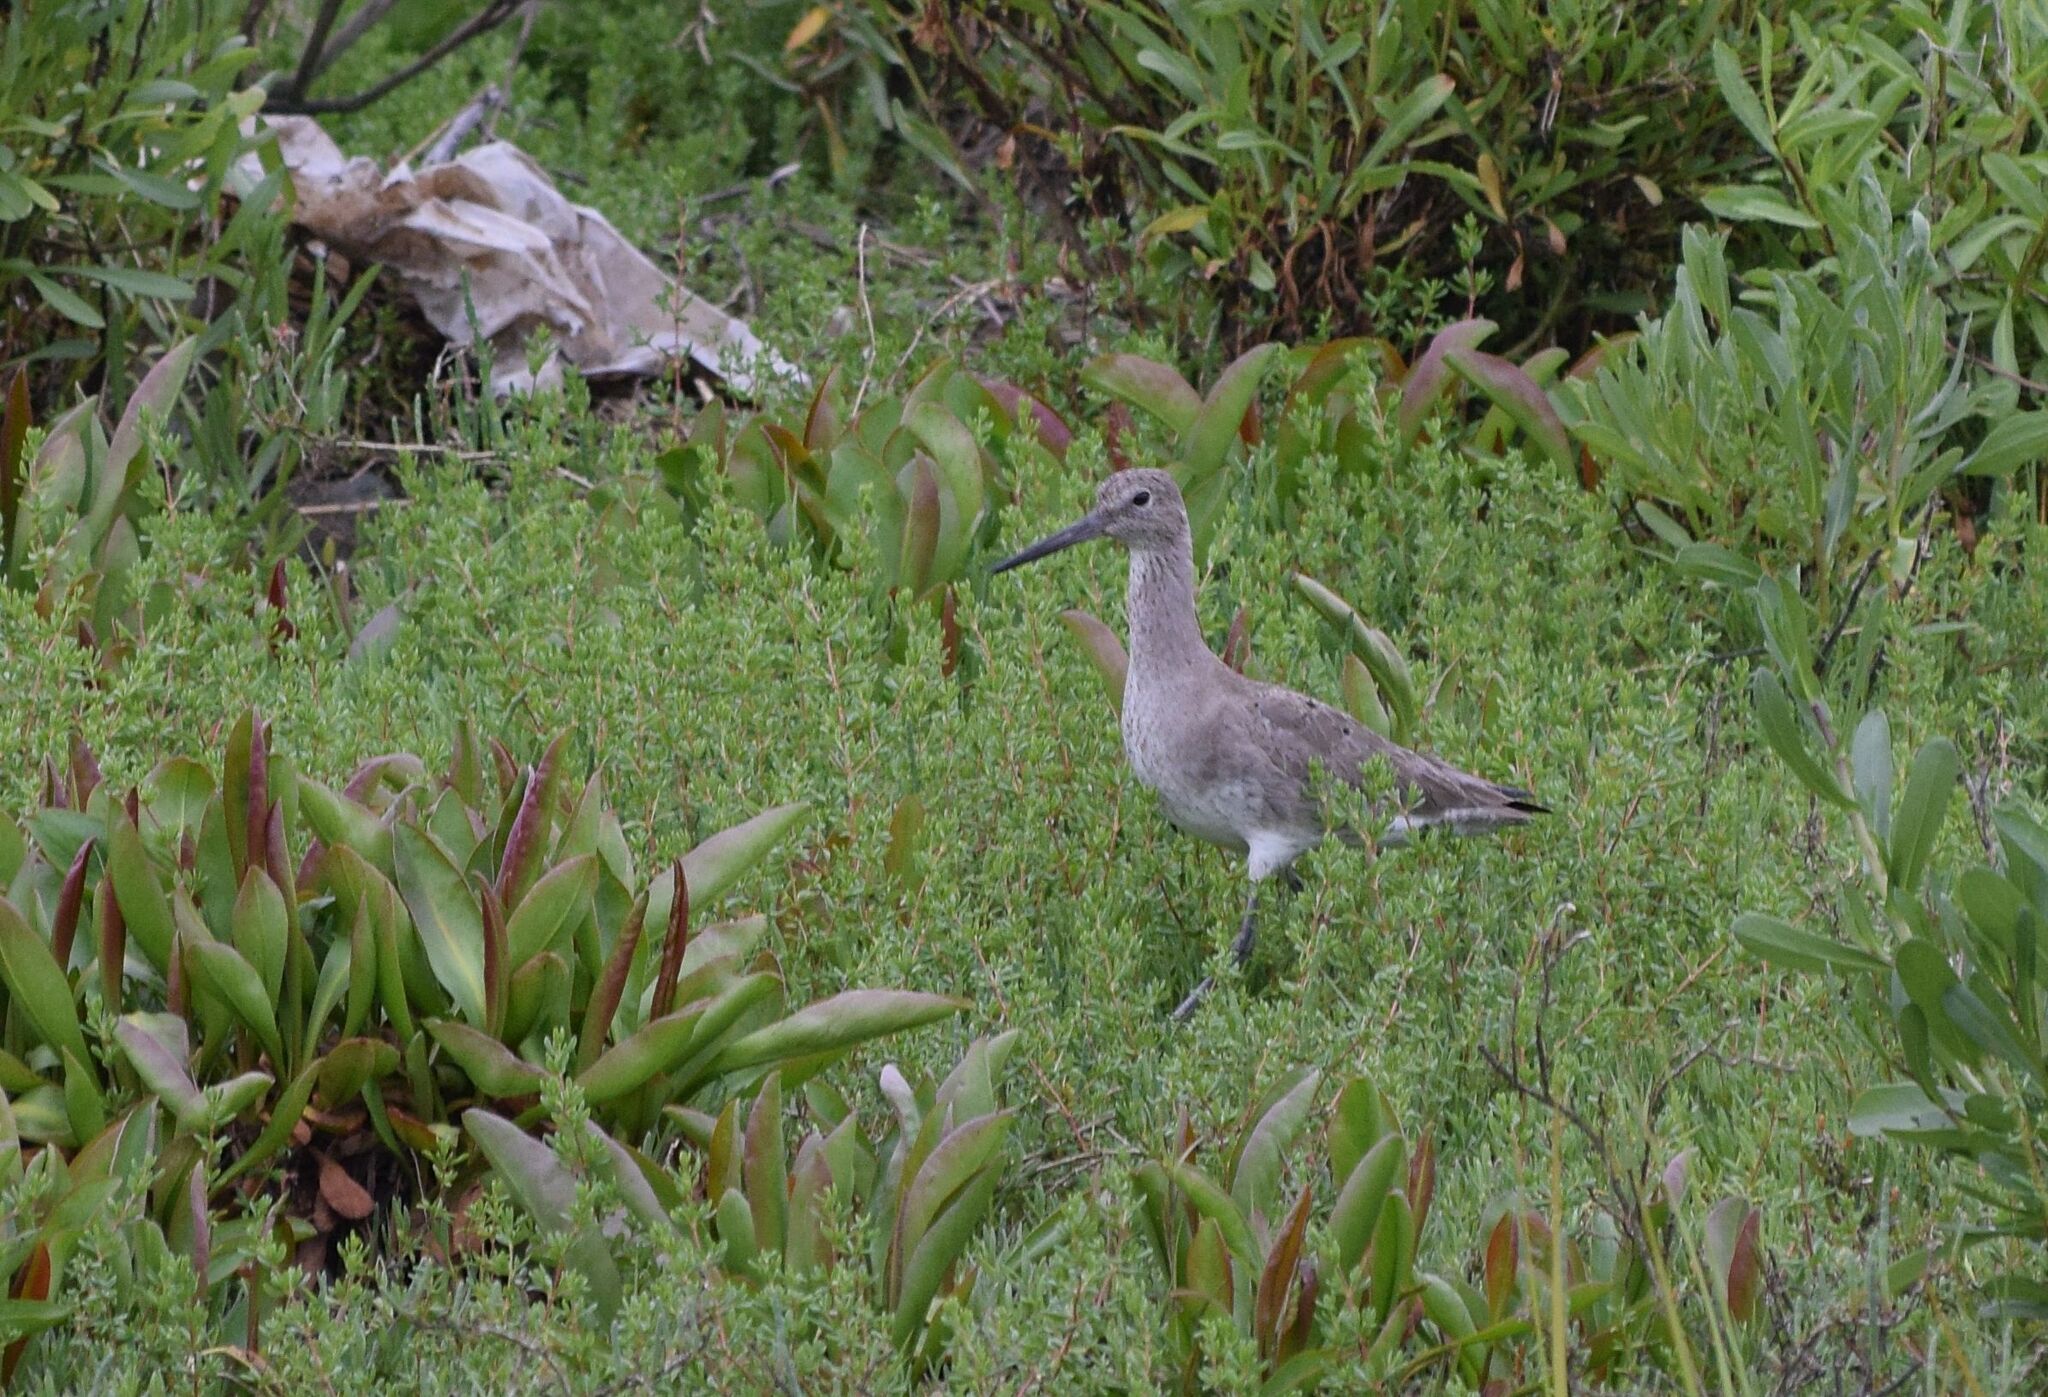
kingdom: Animalia
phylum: Chordata
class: Aves
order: Charadriiformes
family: Scolopacidae
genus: Tringa
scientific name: Tringa semipalmata
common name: Willet
